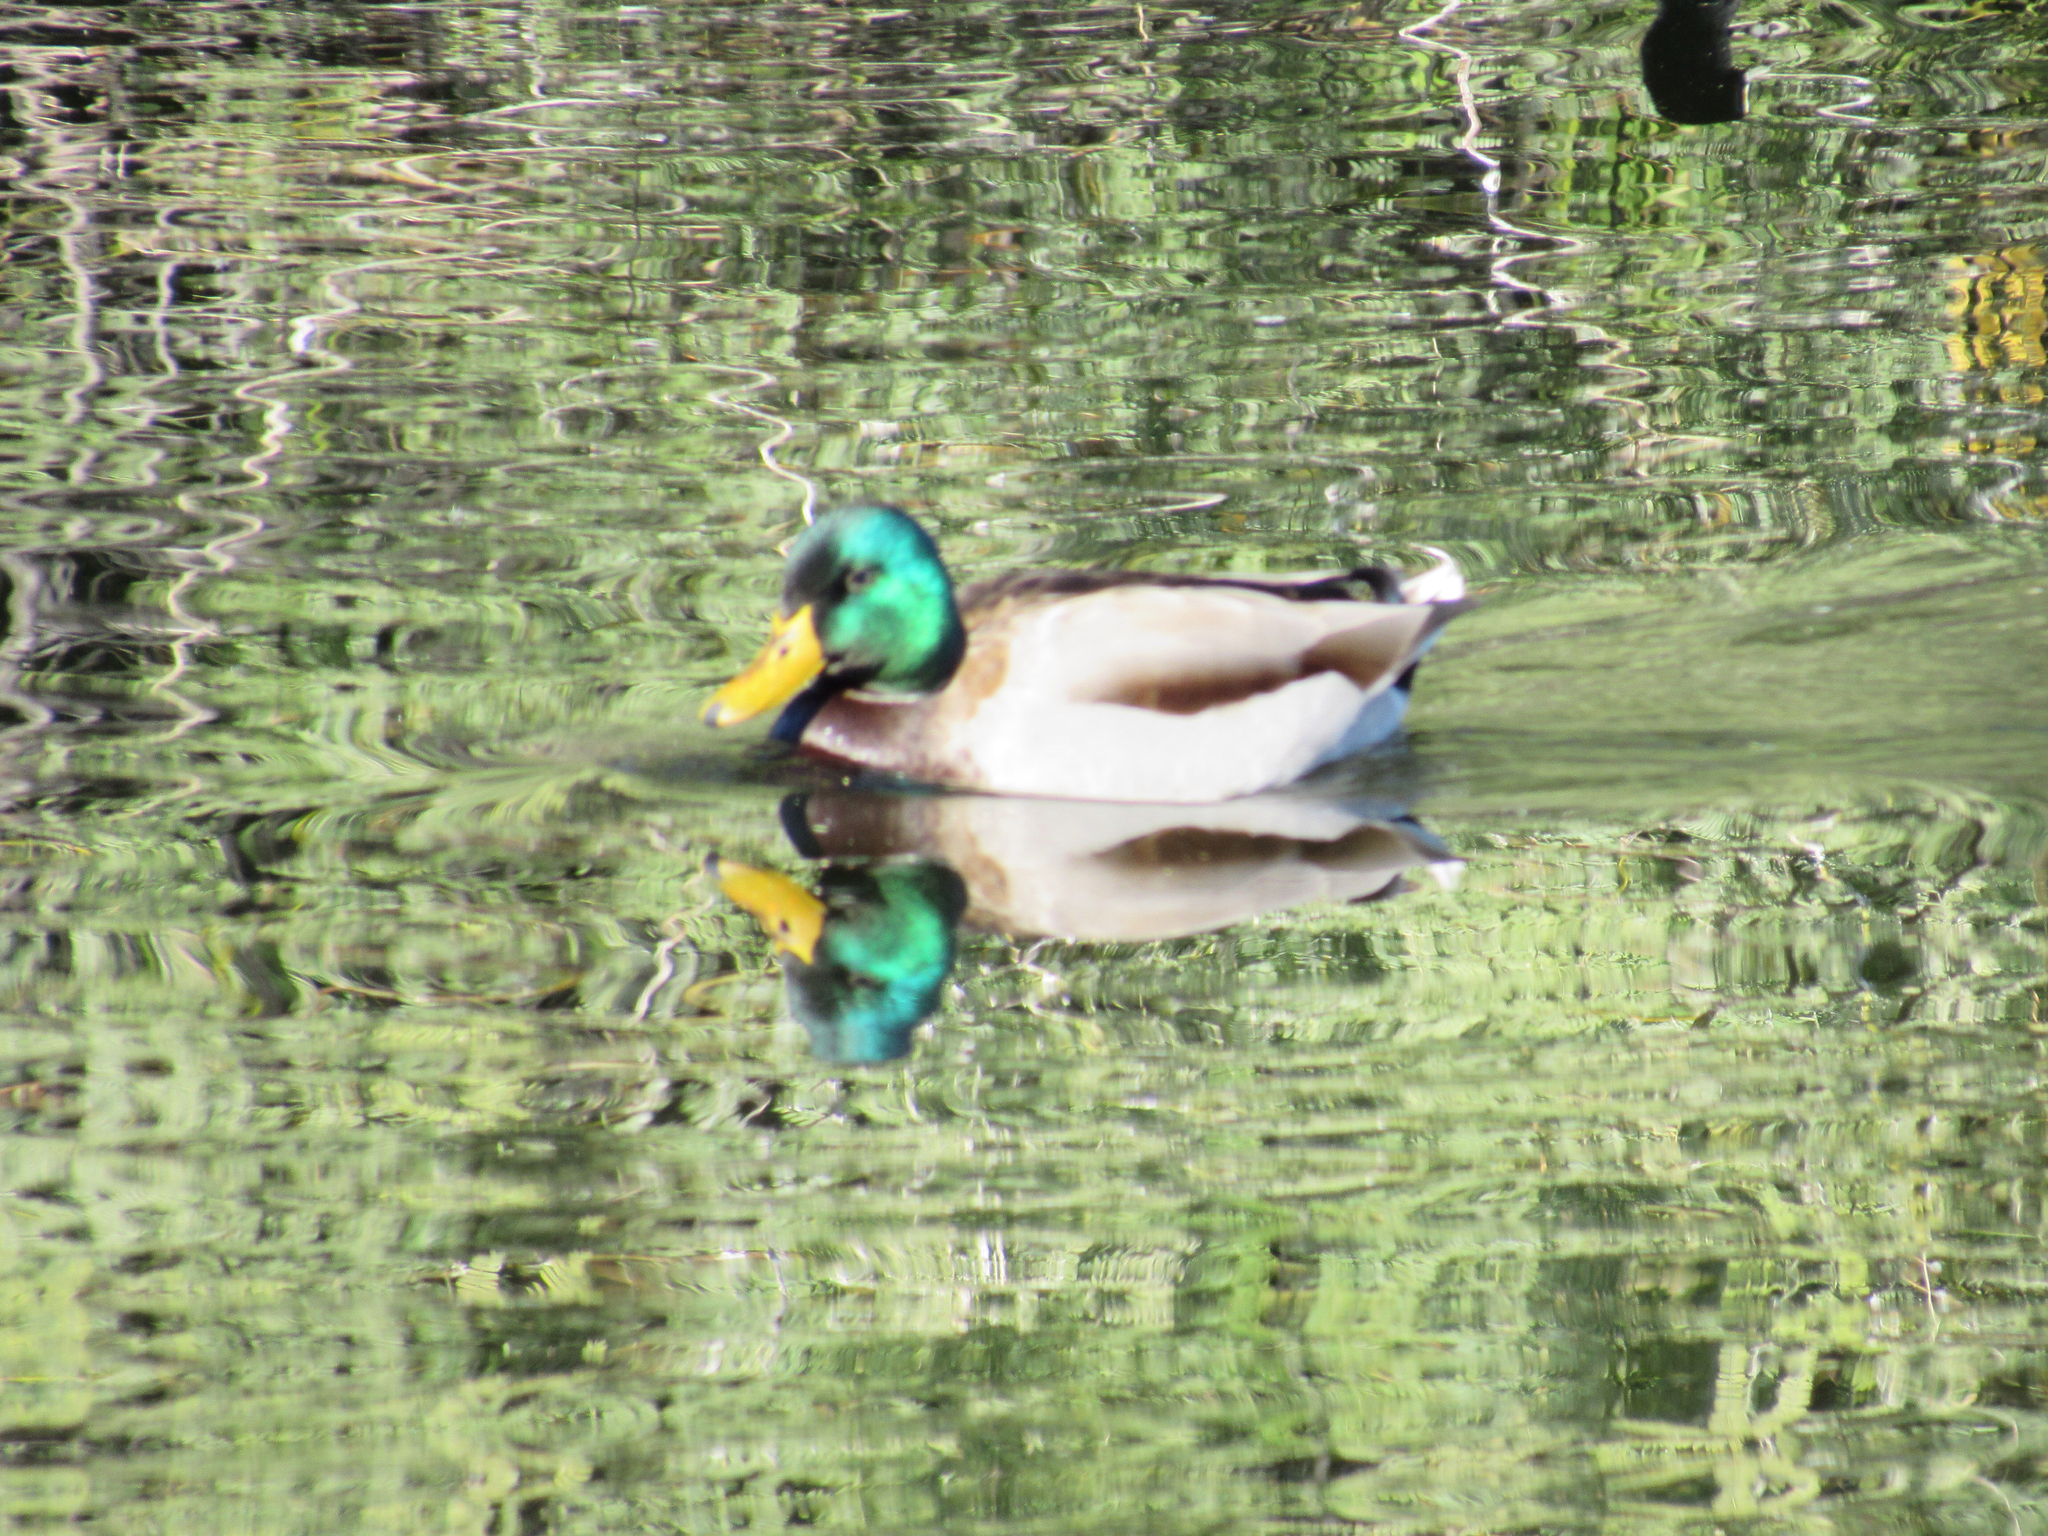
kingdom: Animalia
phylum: Chordata
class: Aves
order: Anseriformes
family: Anatidae
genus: Anas
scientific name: Anas platyrhynchos
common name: Mallard
